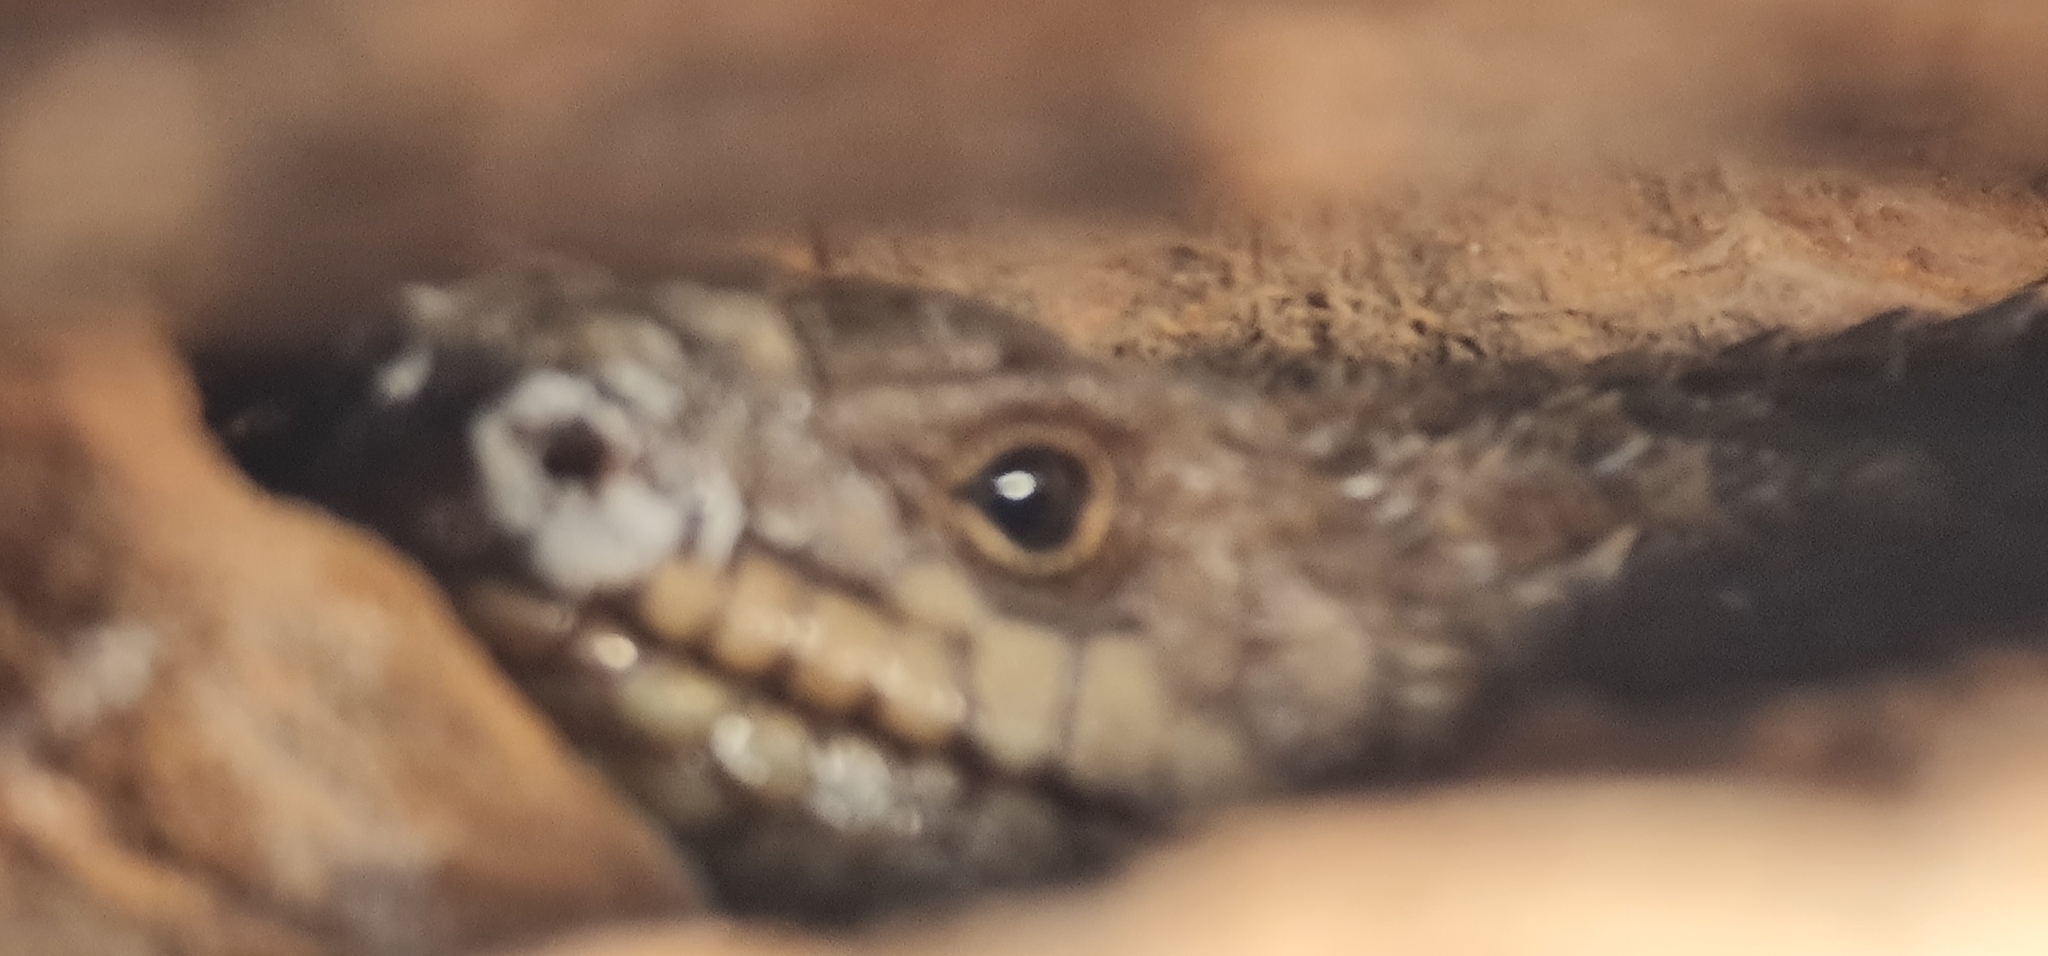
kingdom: Animalia
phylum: Chordata
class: Squamata
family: Scincidae
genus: Egernia
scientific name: Egernia stokesii
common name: Gidgee skink
